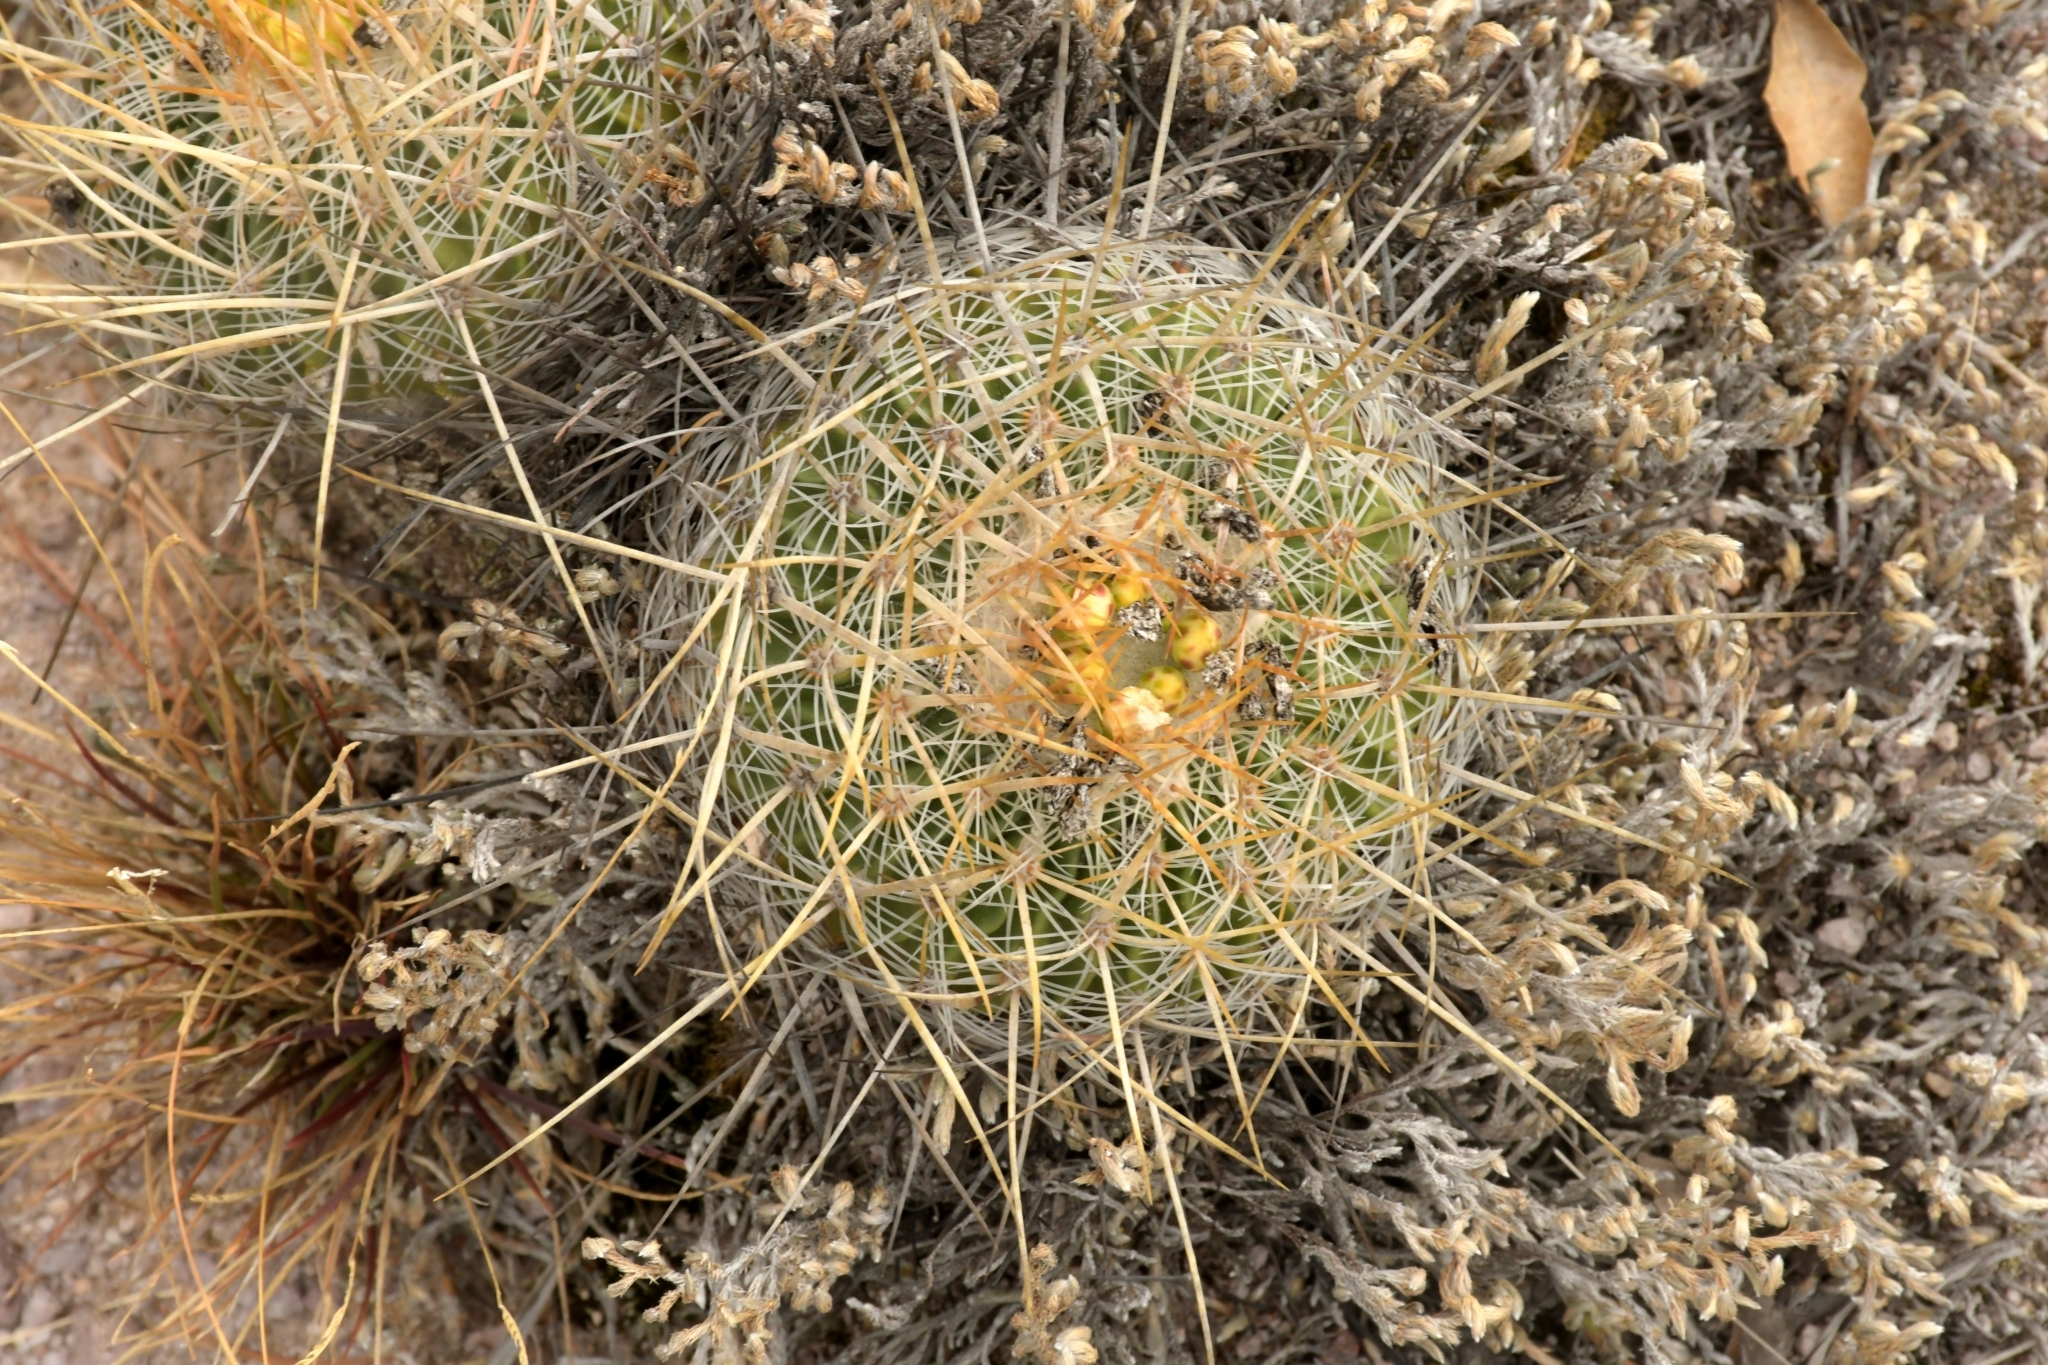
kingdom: Plantae
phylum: Tracheophyta
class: Magnoliopsida
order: Caryophyllales
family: Cactaceae
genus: Stenocactus
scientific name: Stenocactus crispatus
